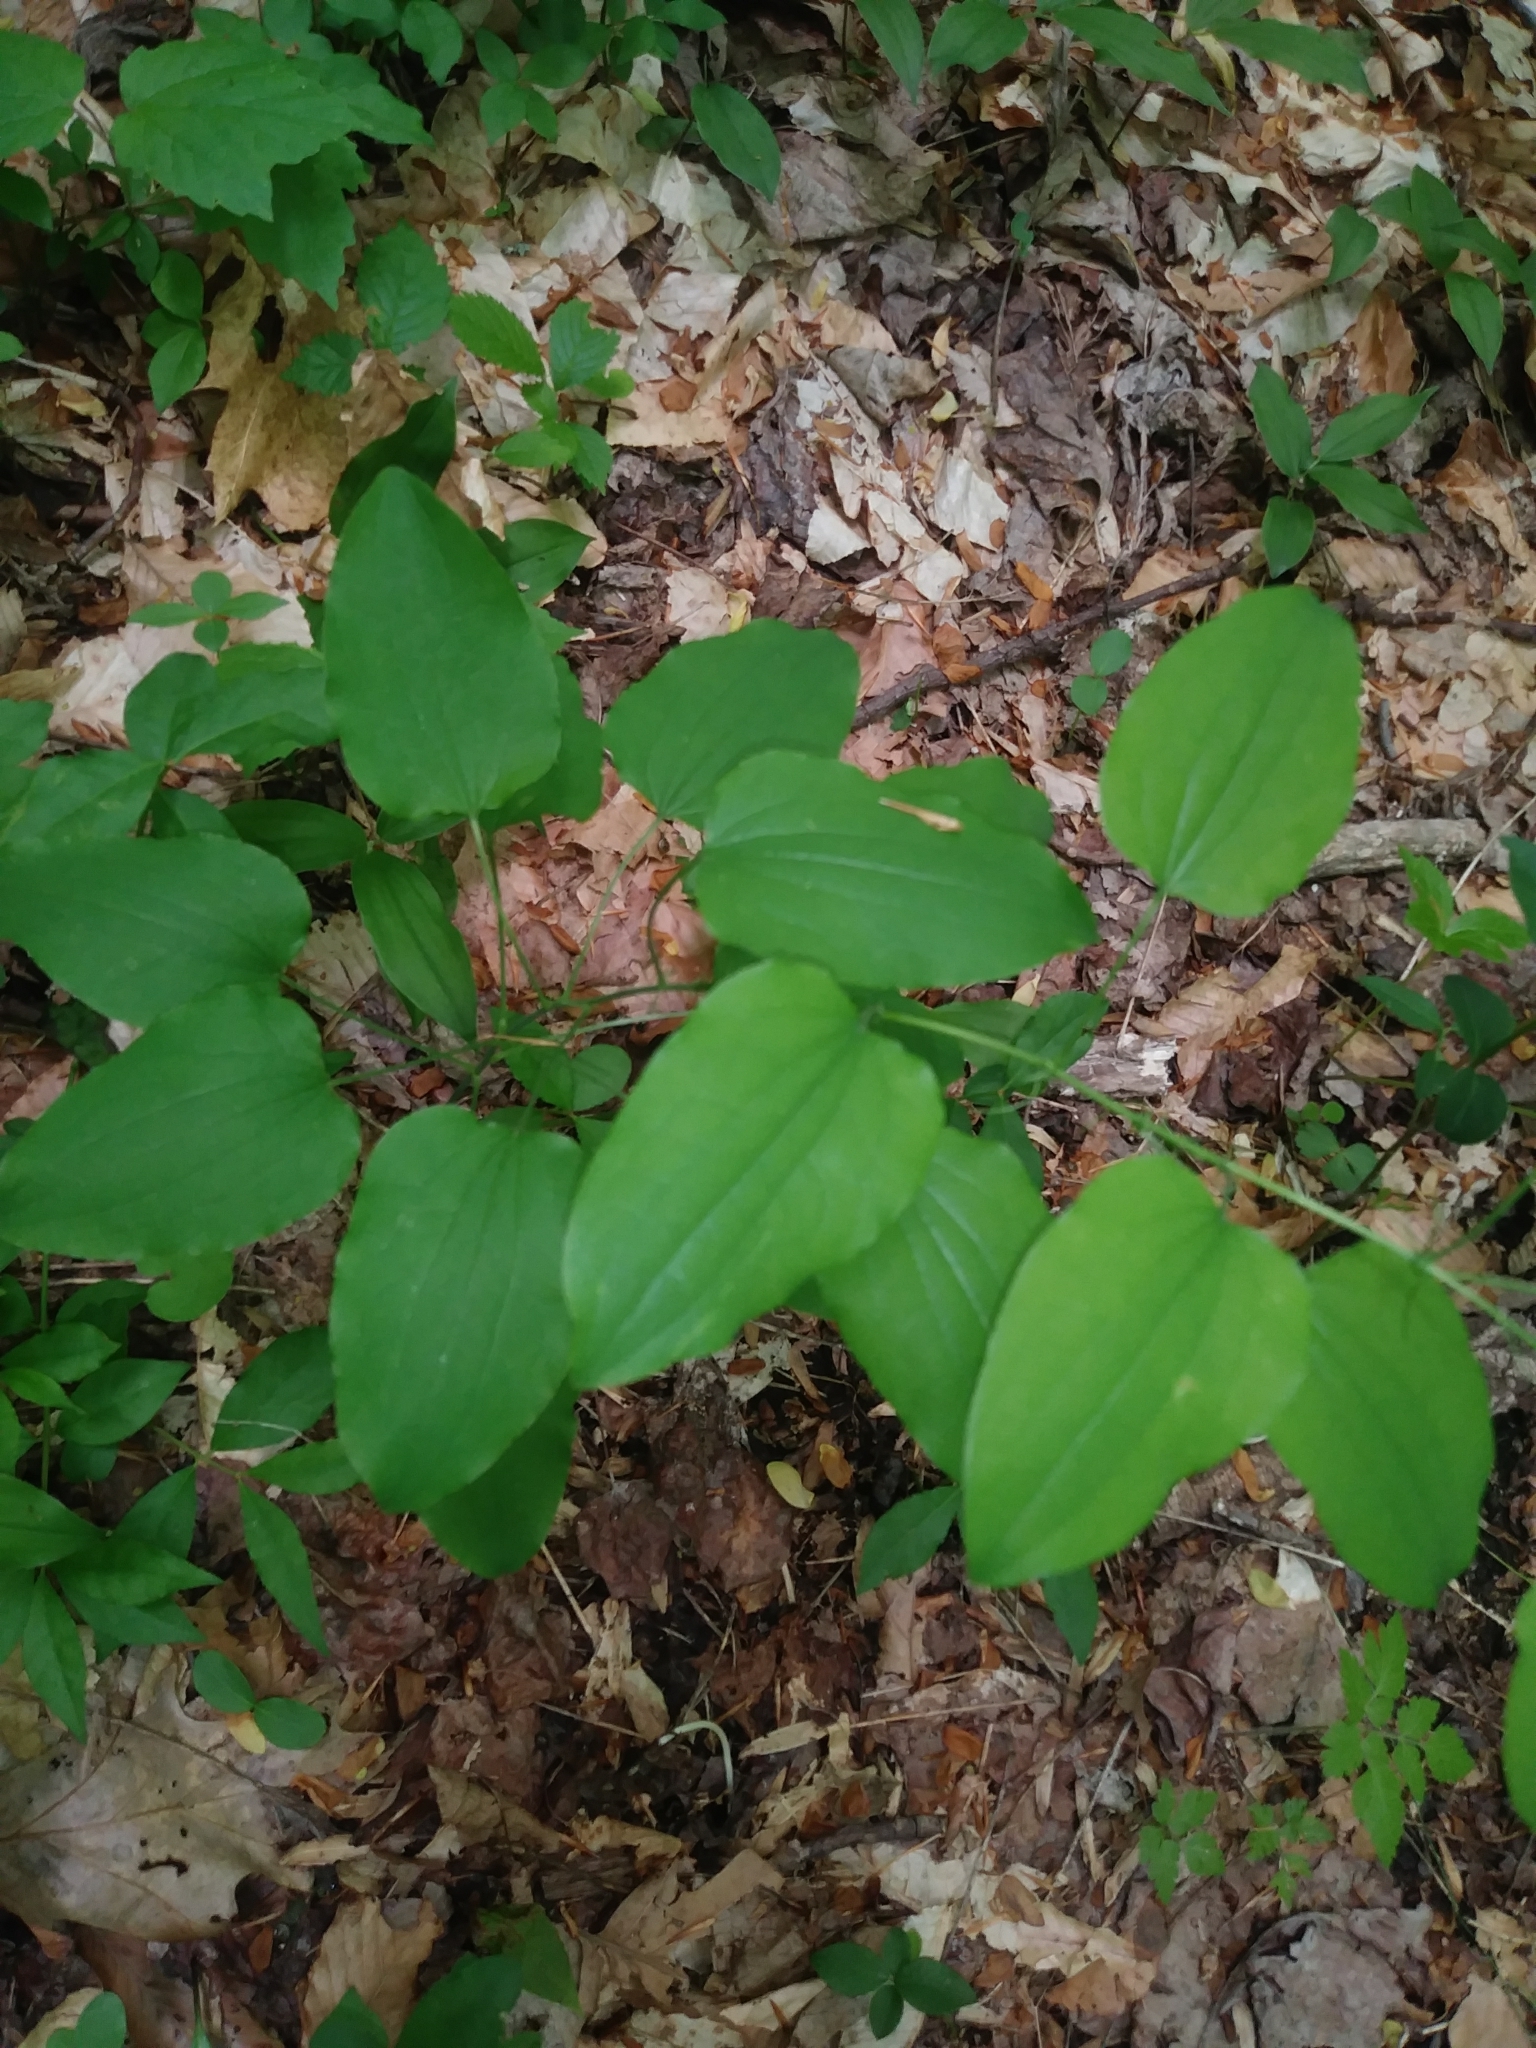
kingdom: Plantae
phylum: Tracheophyta
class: Liliopsida
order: Liliales
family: Smilacaceae
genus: Smilax
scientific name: Smilax herbacea
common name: Jacob's-ladder
